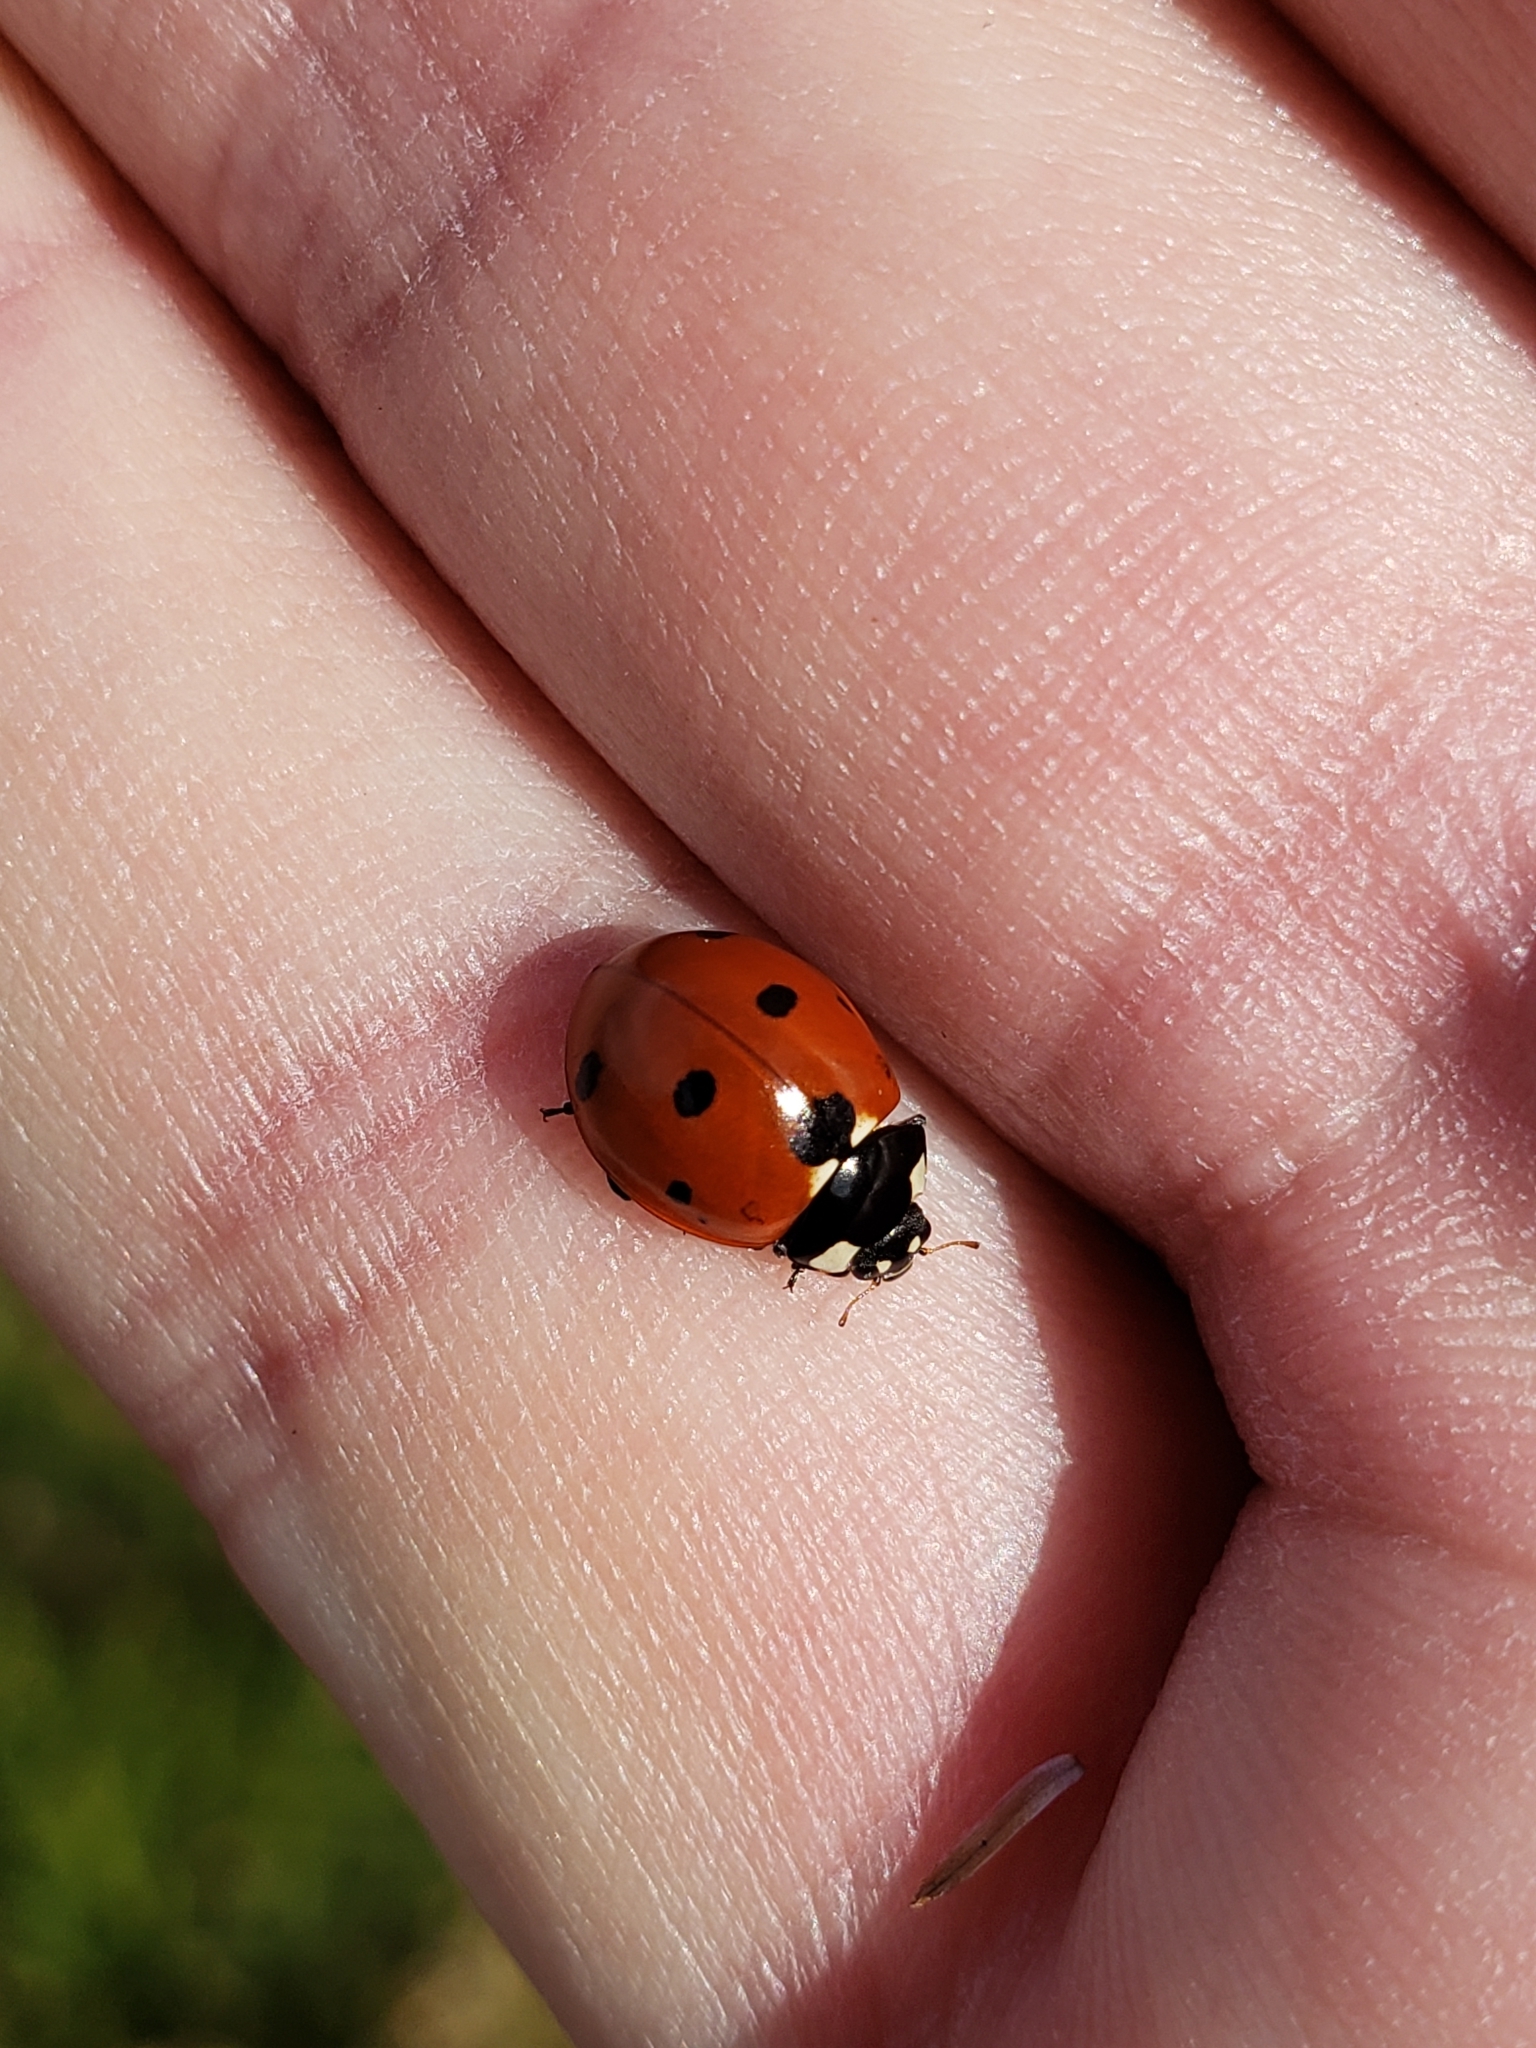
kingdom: Animalia
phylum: Arthropoda
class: Insecta
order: Coleoptera
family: Coccinellidae
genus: Coccinella
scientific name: Coccinella septempunctata
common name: Sevenspotted lady beetle
